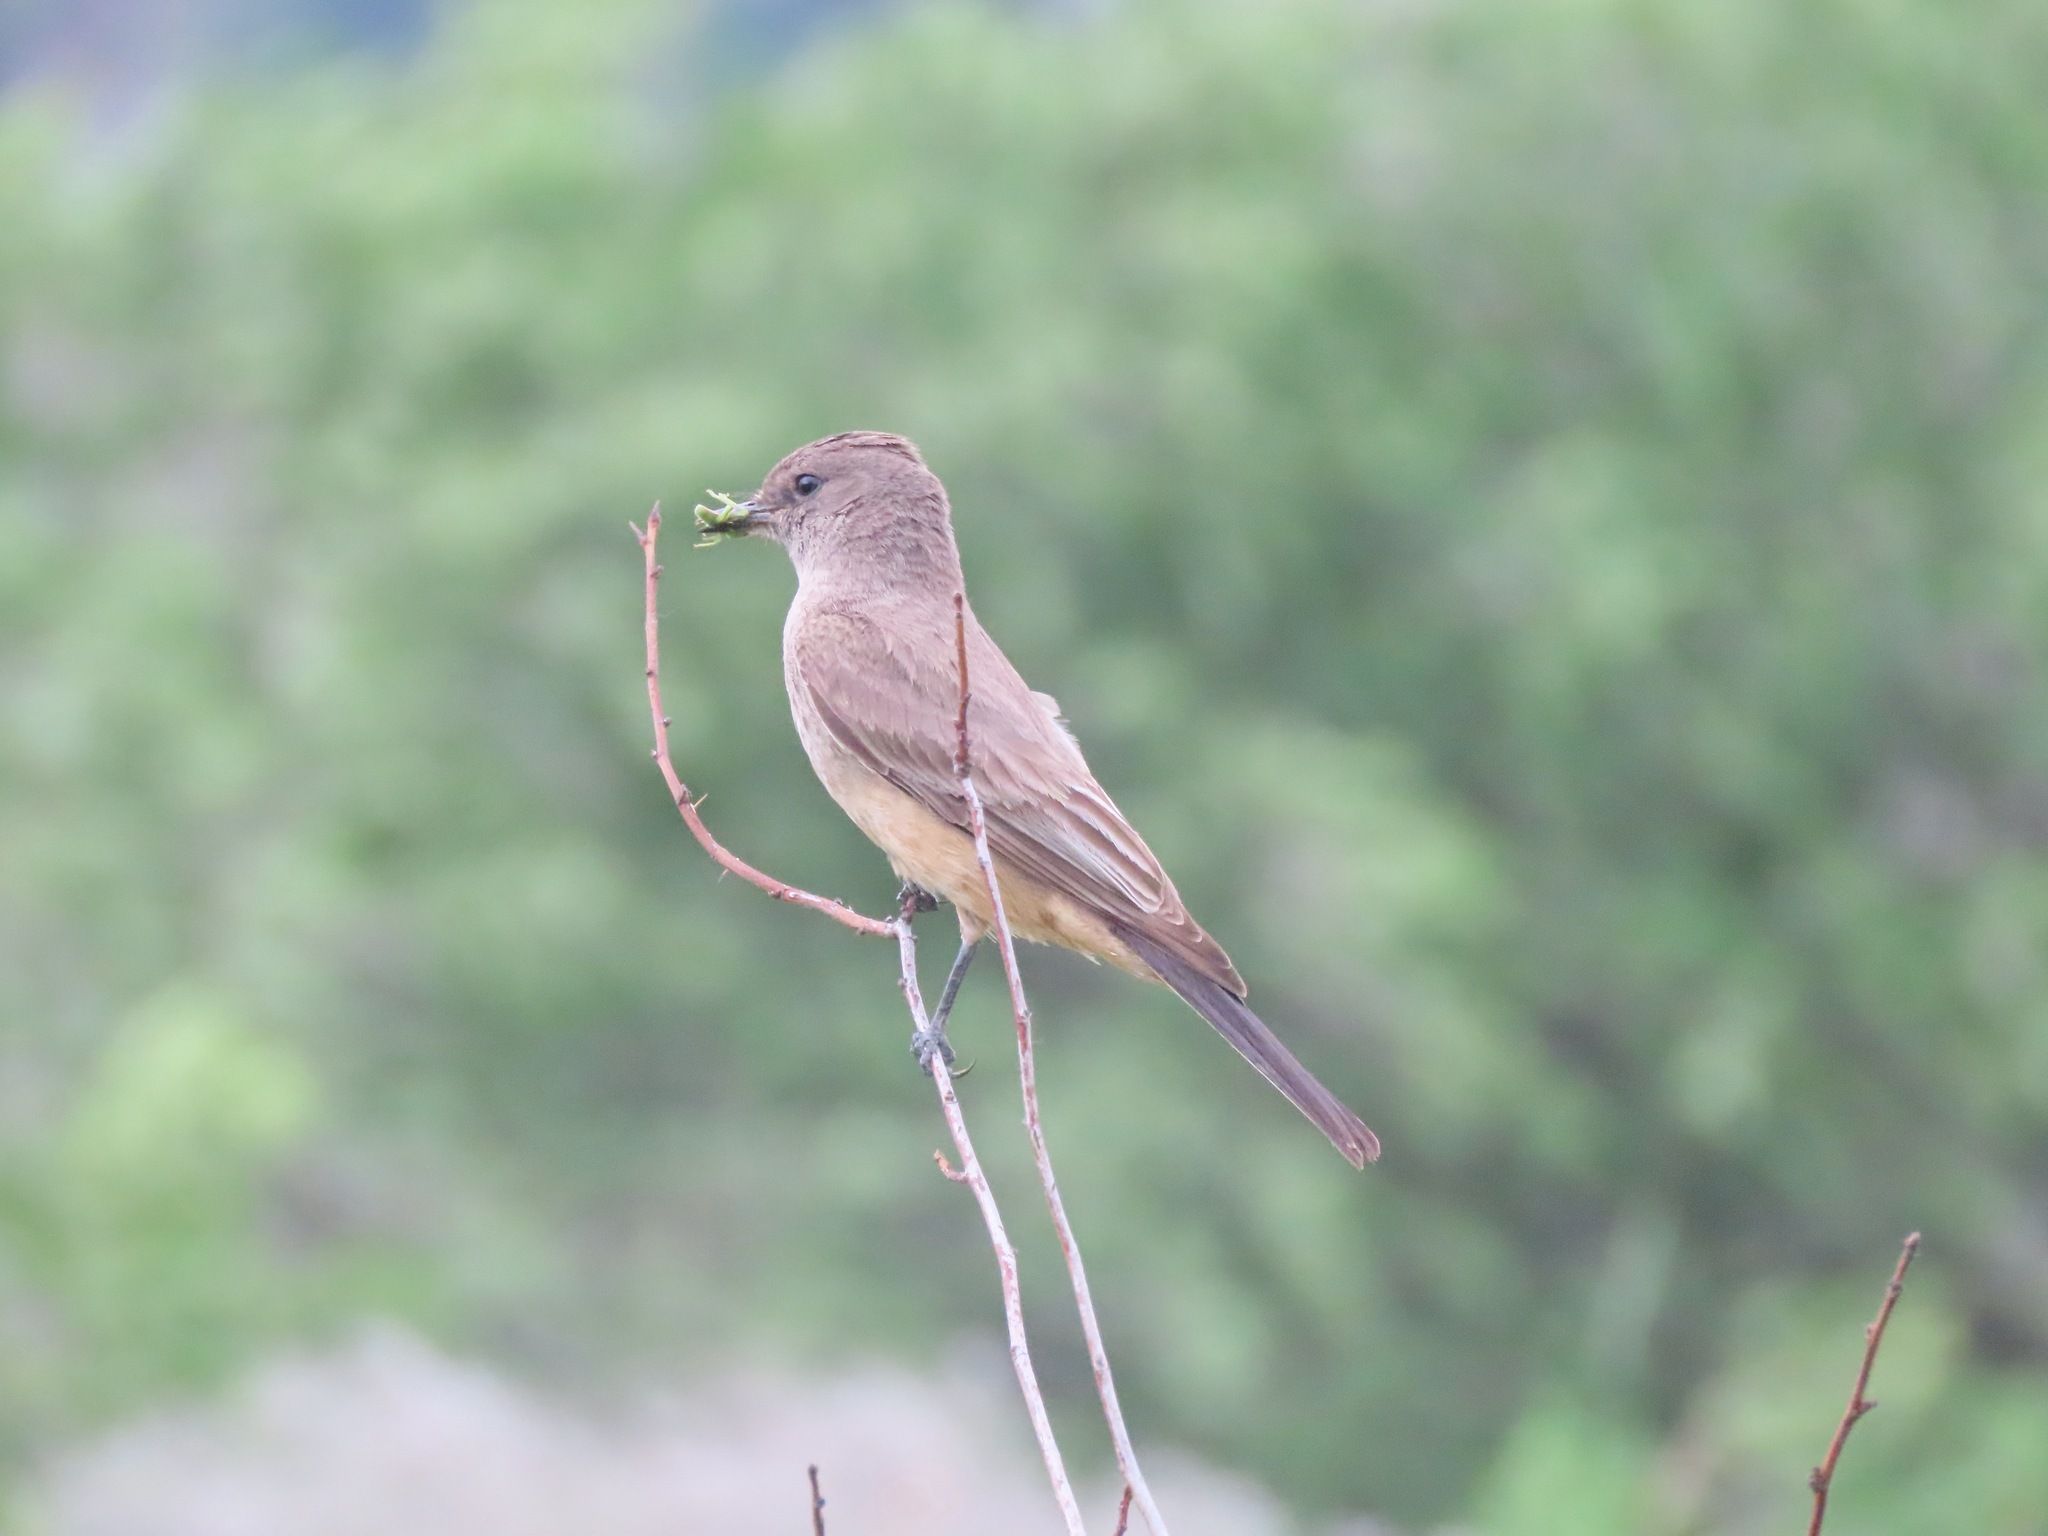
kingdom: Animalia
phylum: Chordata
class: Aves
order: Passeriformes
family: Tyrannidae
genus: Sayornis
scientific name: Sayornis saya
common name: Say's phoebe
